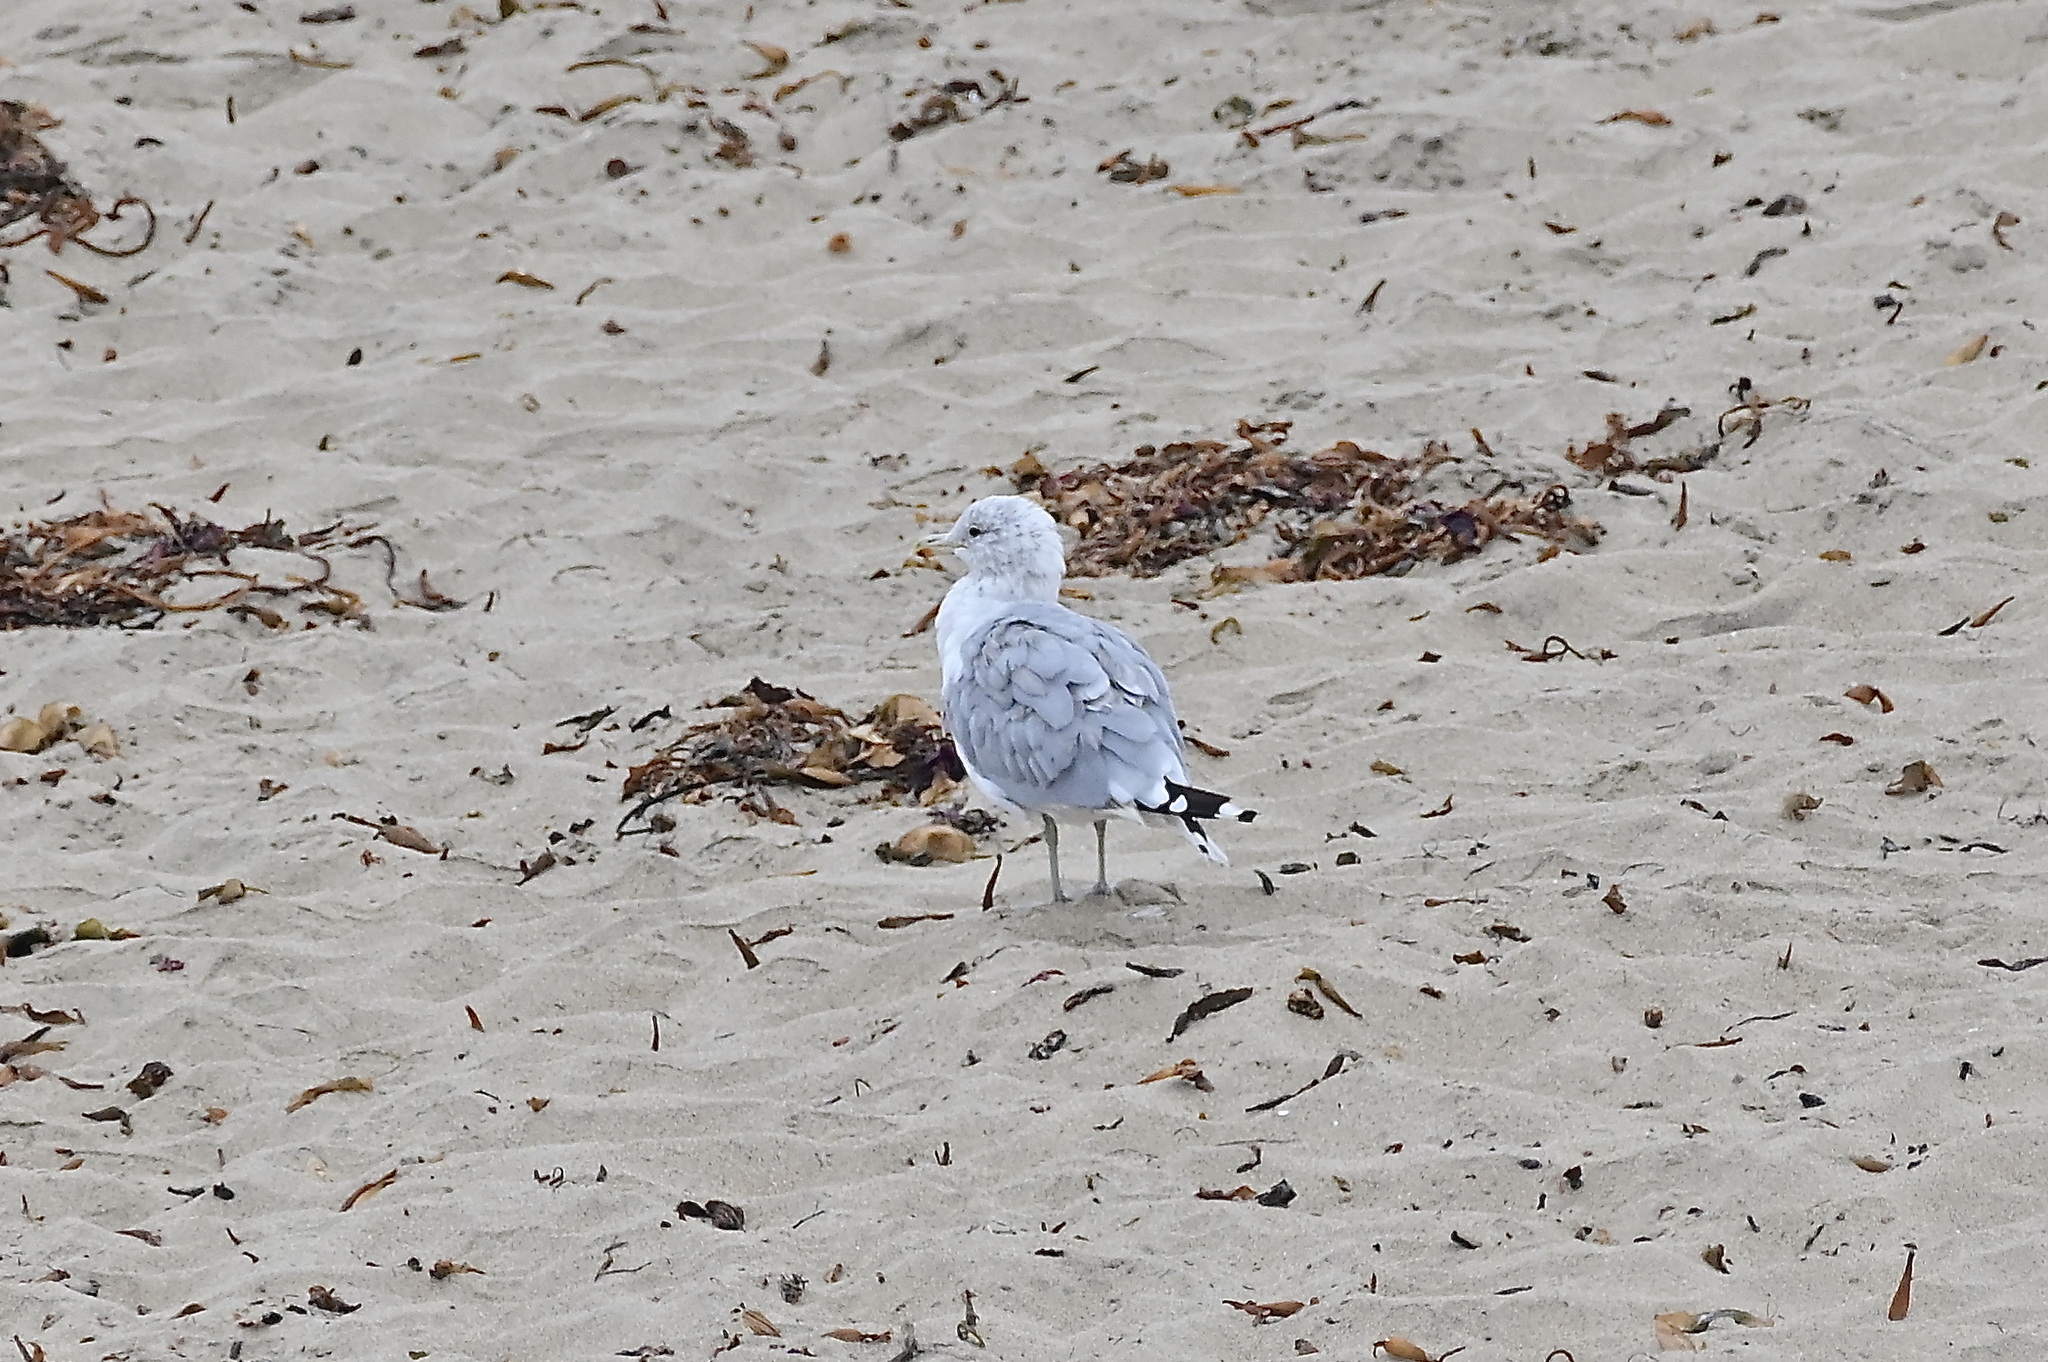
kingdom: Animalia
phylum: Chordata
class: Aves
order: Charadriiformes
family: Laridae
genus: Larus
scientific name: Larus californicus
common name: California gull
